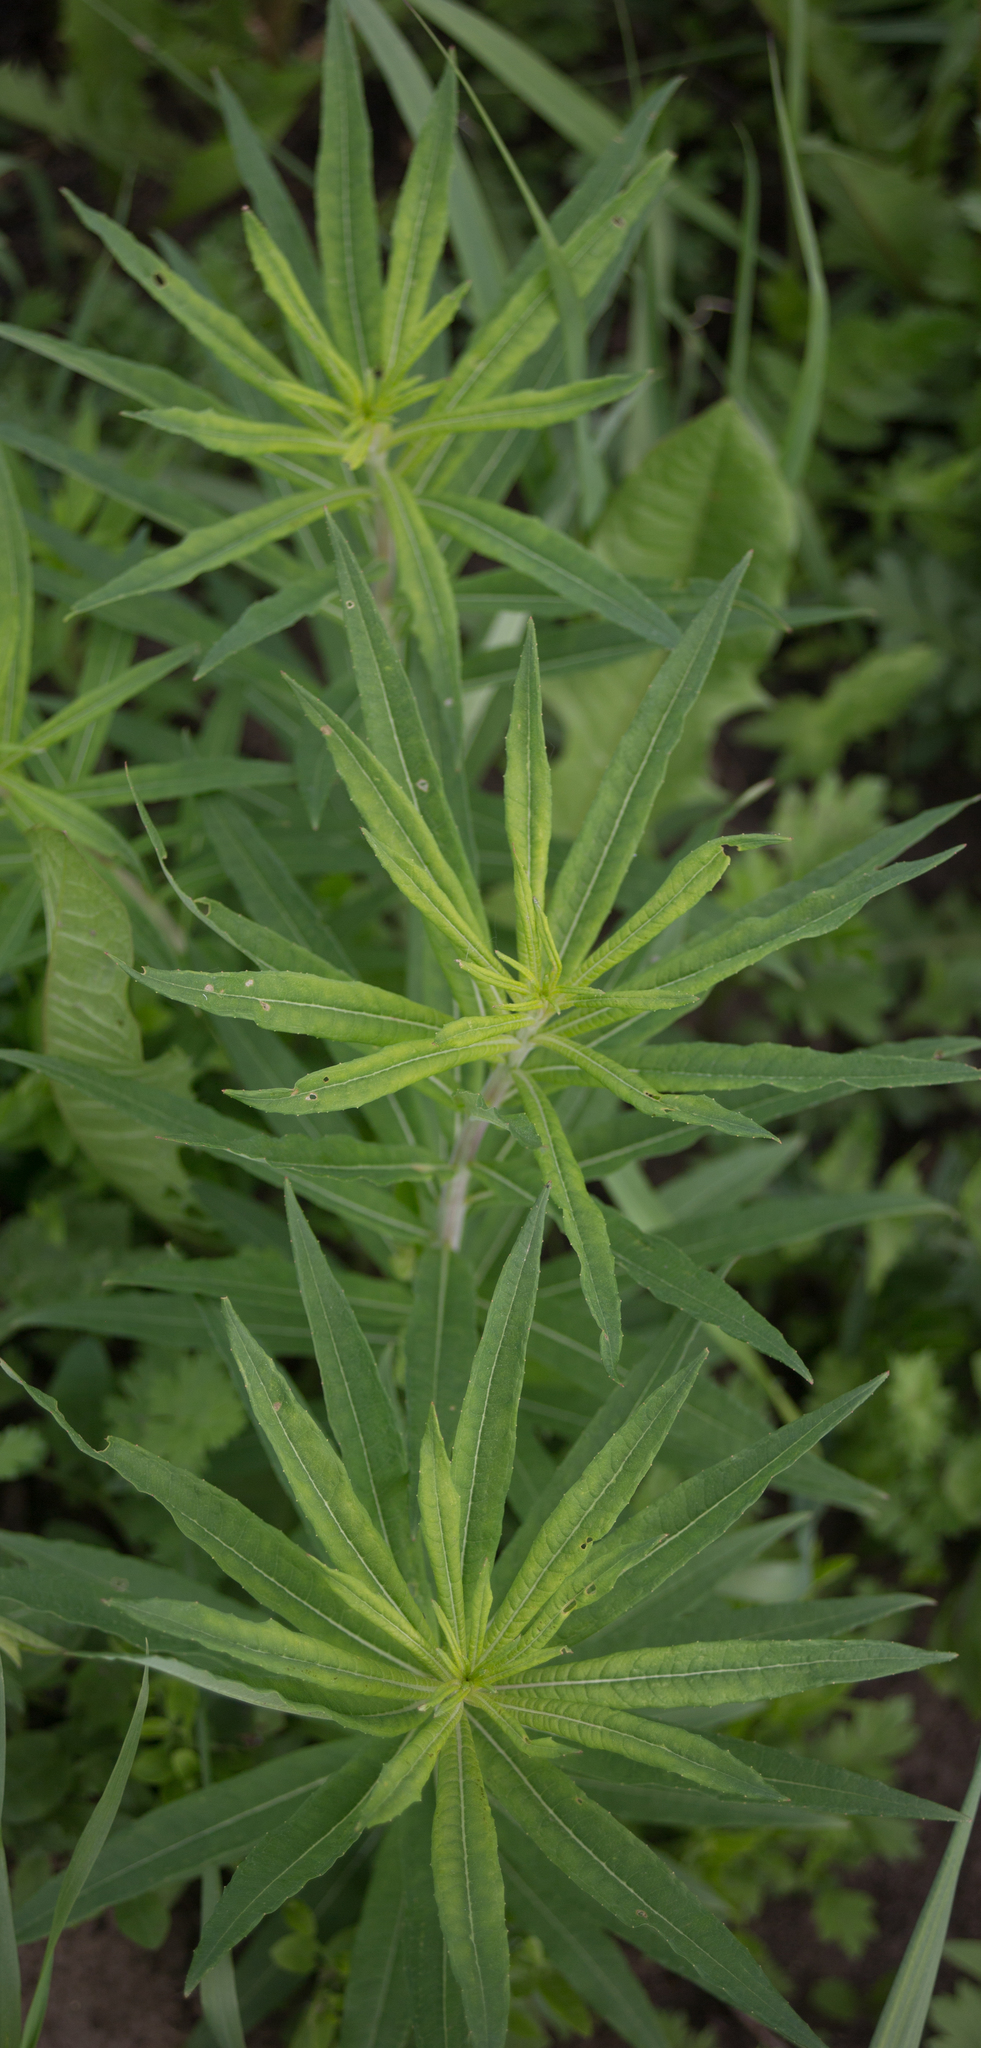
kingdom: Plantae
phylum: Tracheophyta
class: Magnoliopsida
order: Myrtales
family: Onagraceae
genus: Chamaenerion
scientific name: Chamaenerion angustifolium
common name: Fireweed
